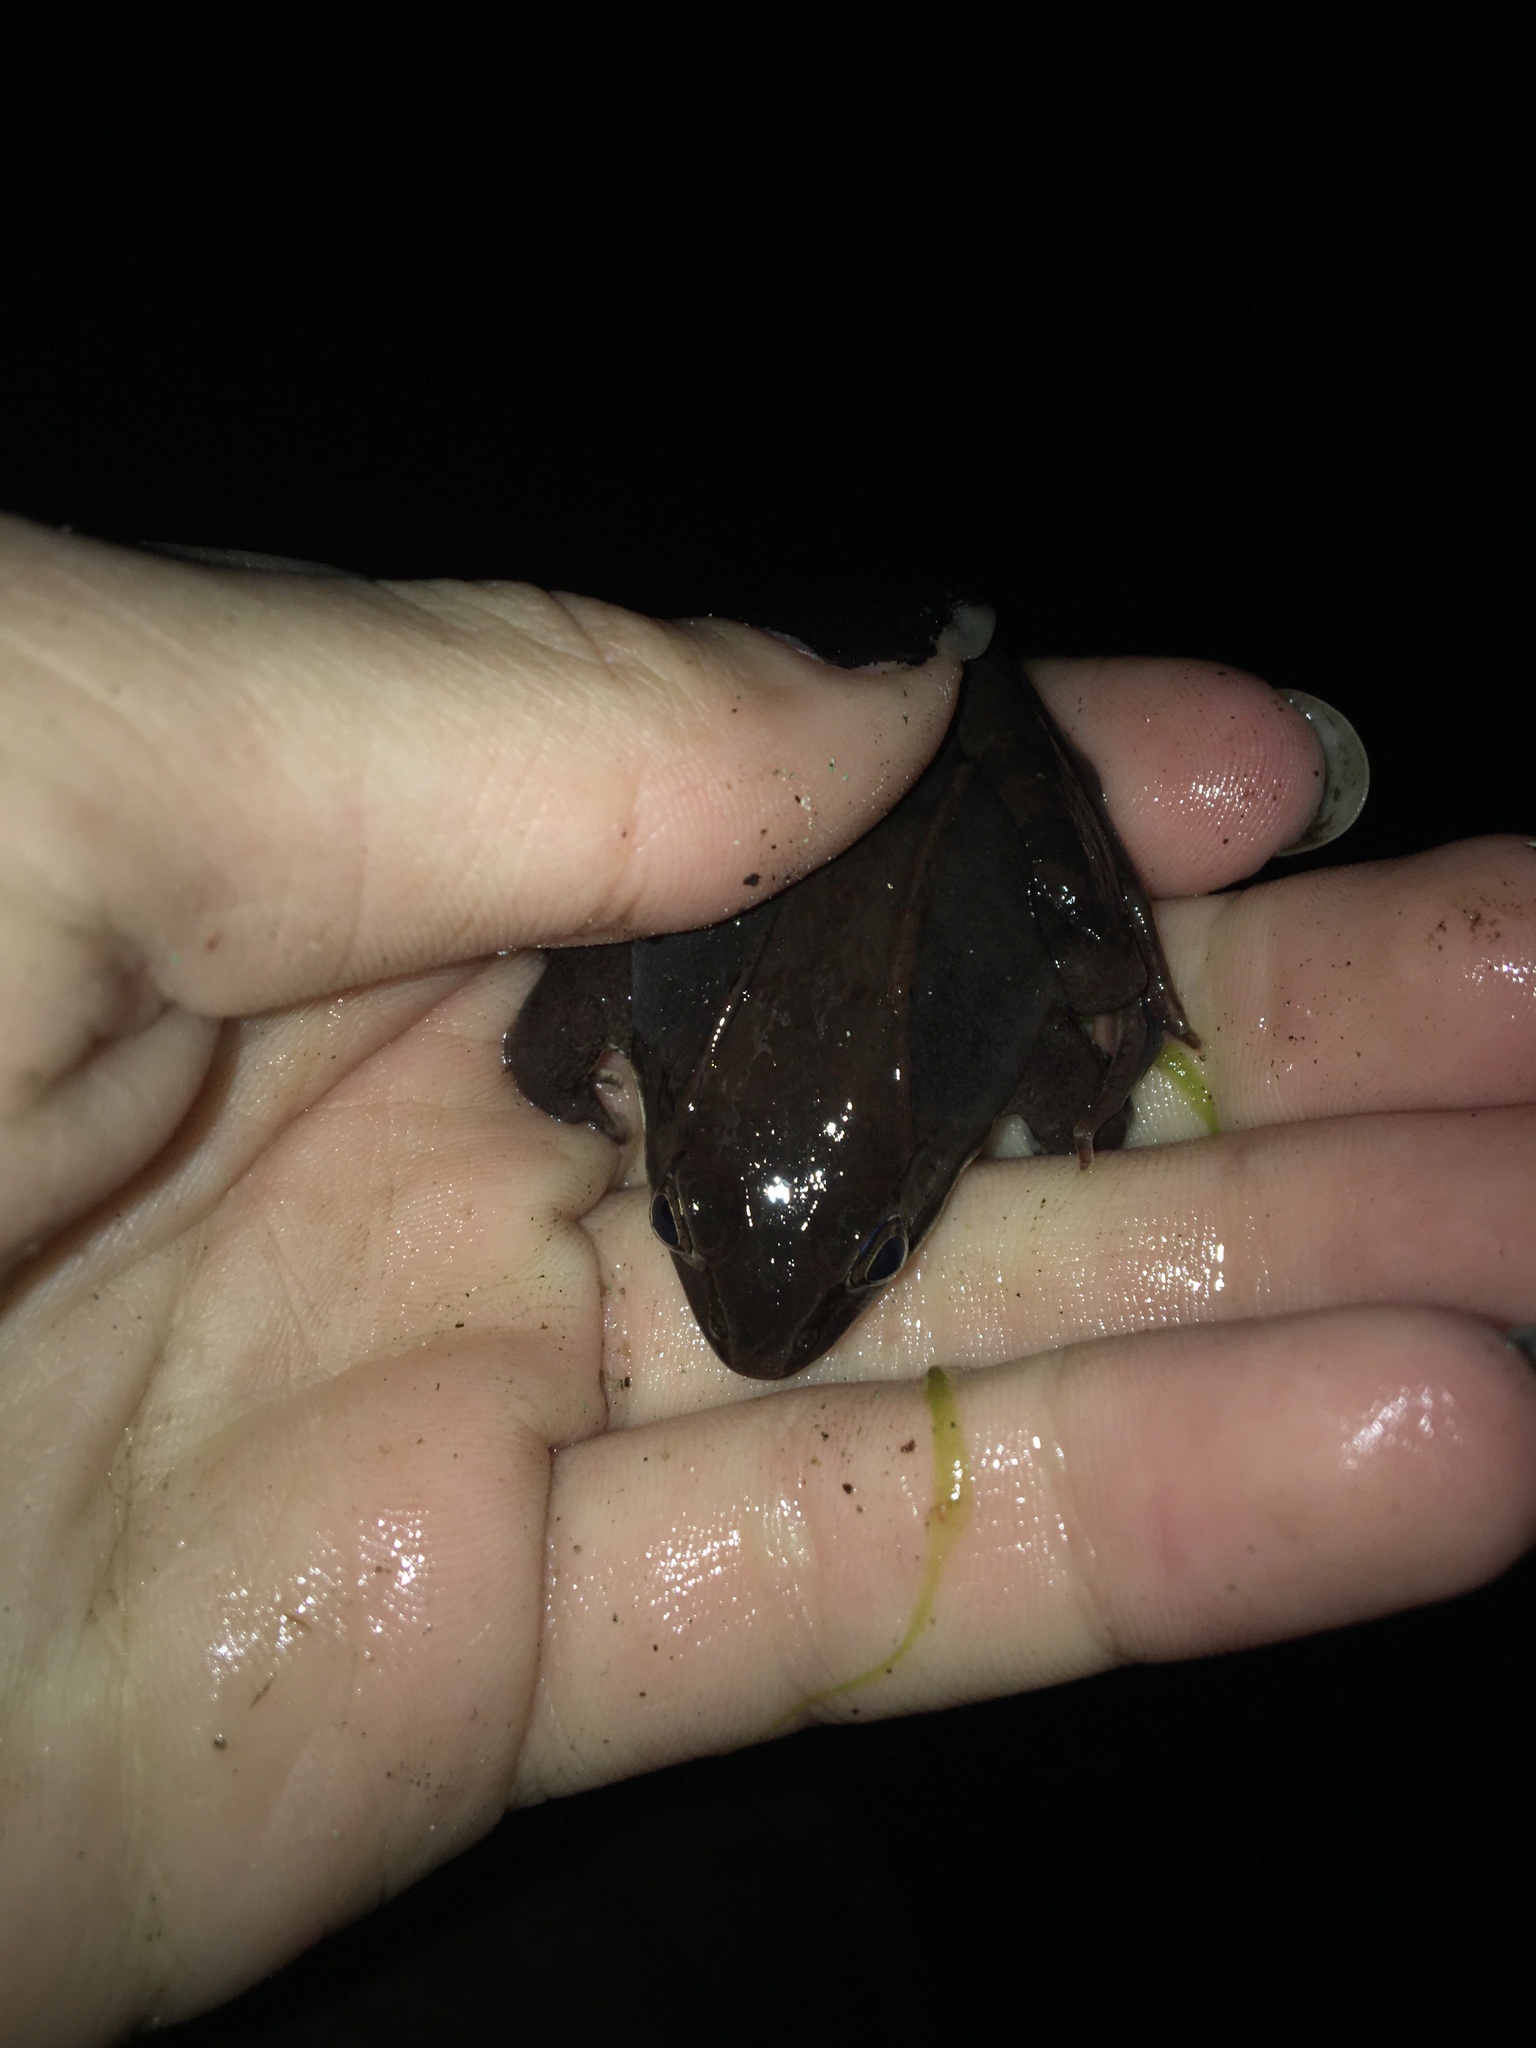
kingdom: Animalia
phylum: Chordata
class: Amphibia
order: Anura
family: Ranidae
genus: Lithobates
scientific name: Lithobates sylvaticus
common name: Wood frog
